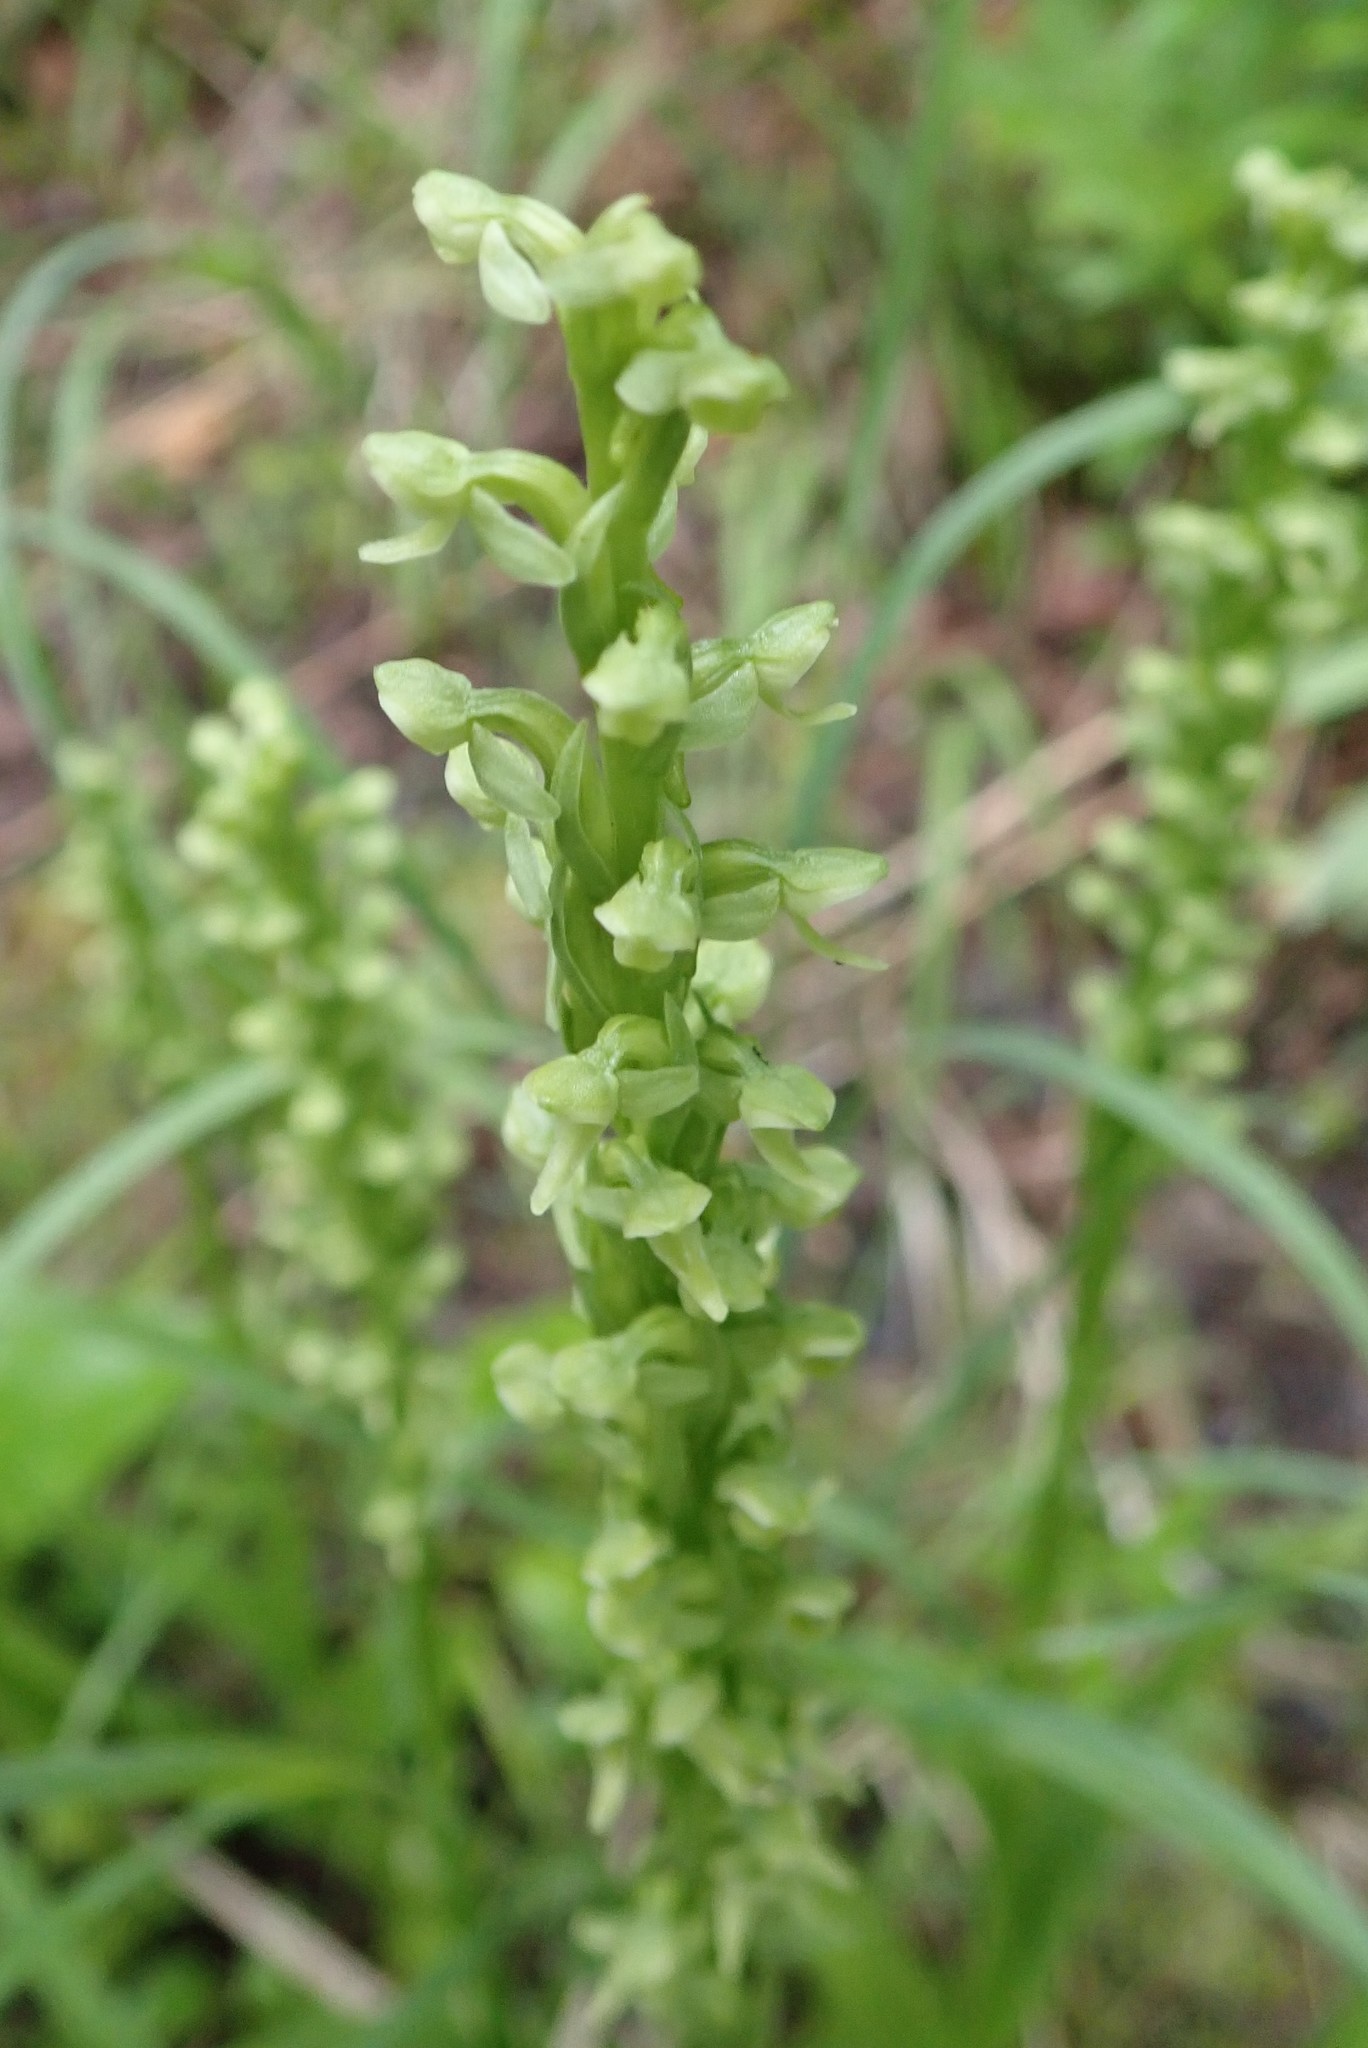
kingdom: Plantae
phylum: Tracheophyta
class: Liliopsida
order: Asparagales
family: Orchidaceae
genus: Platanthera
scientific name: Platanthera huronensis
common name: Fragrant green orchid
